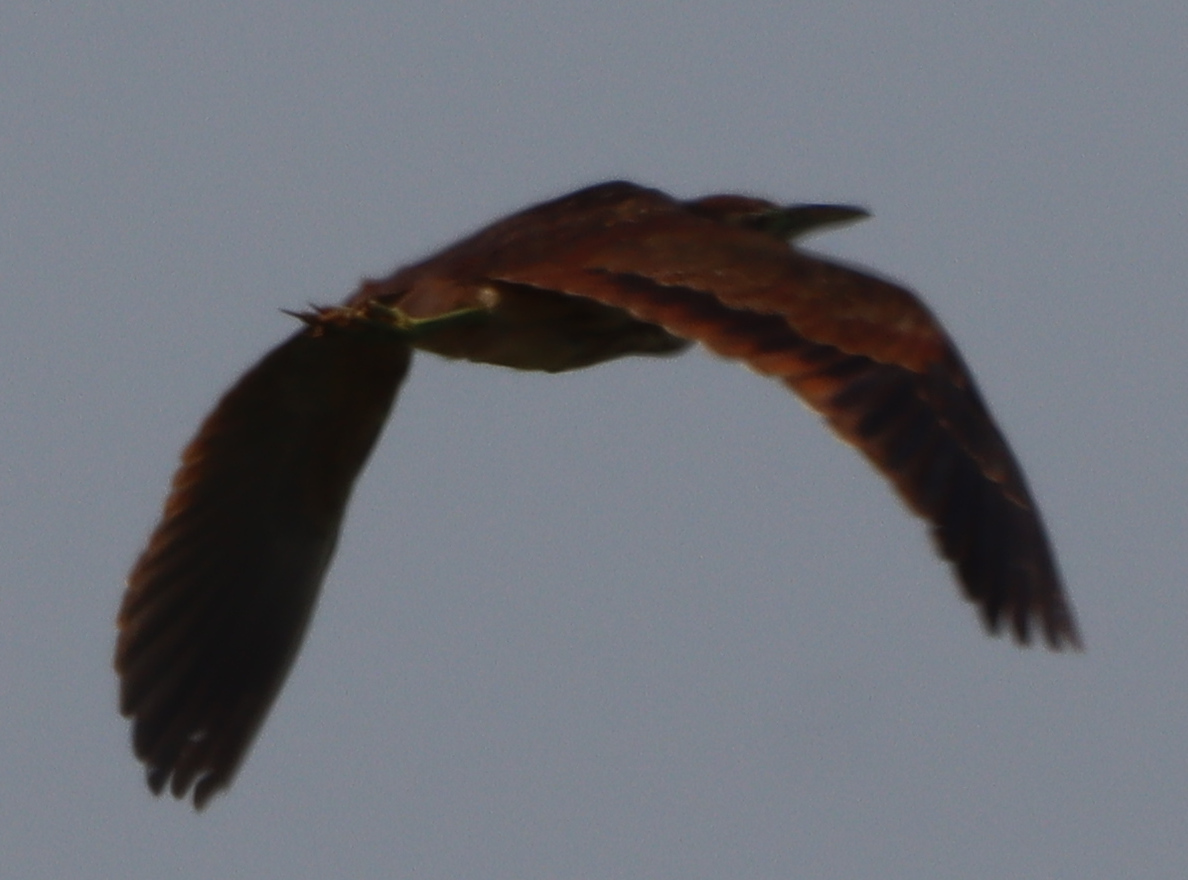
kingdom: Animalia
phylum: Chordata
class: Aves
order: Pelecaniformes
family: Ardeidae
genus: Botaurus
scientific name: Botaurus lentiginosus
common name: American bittern
